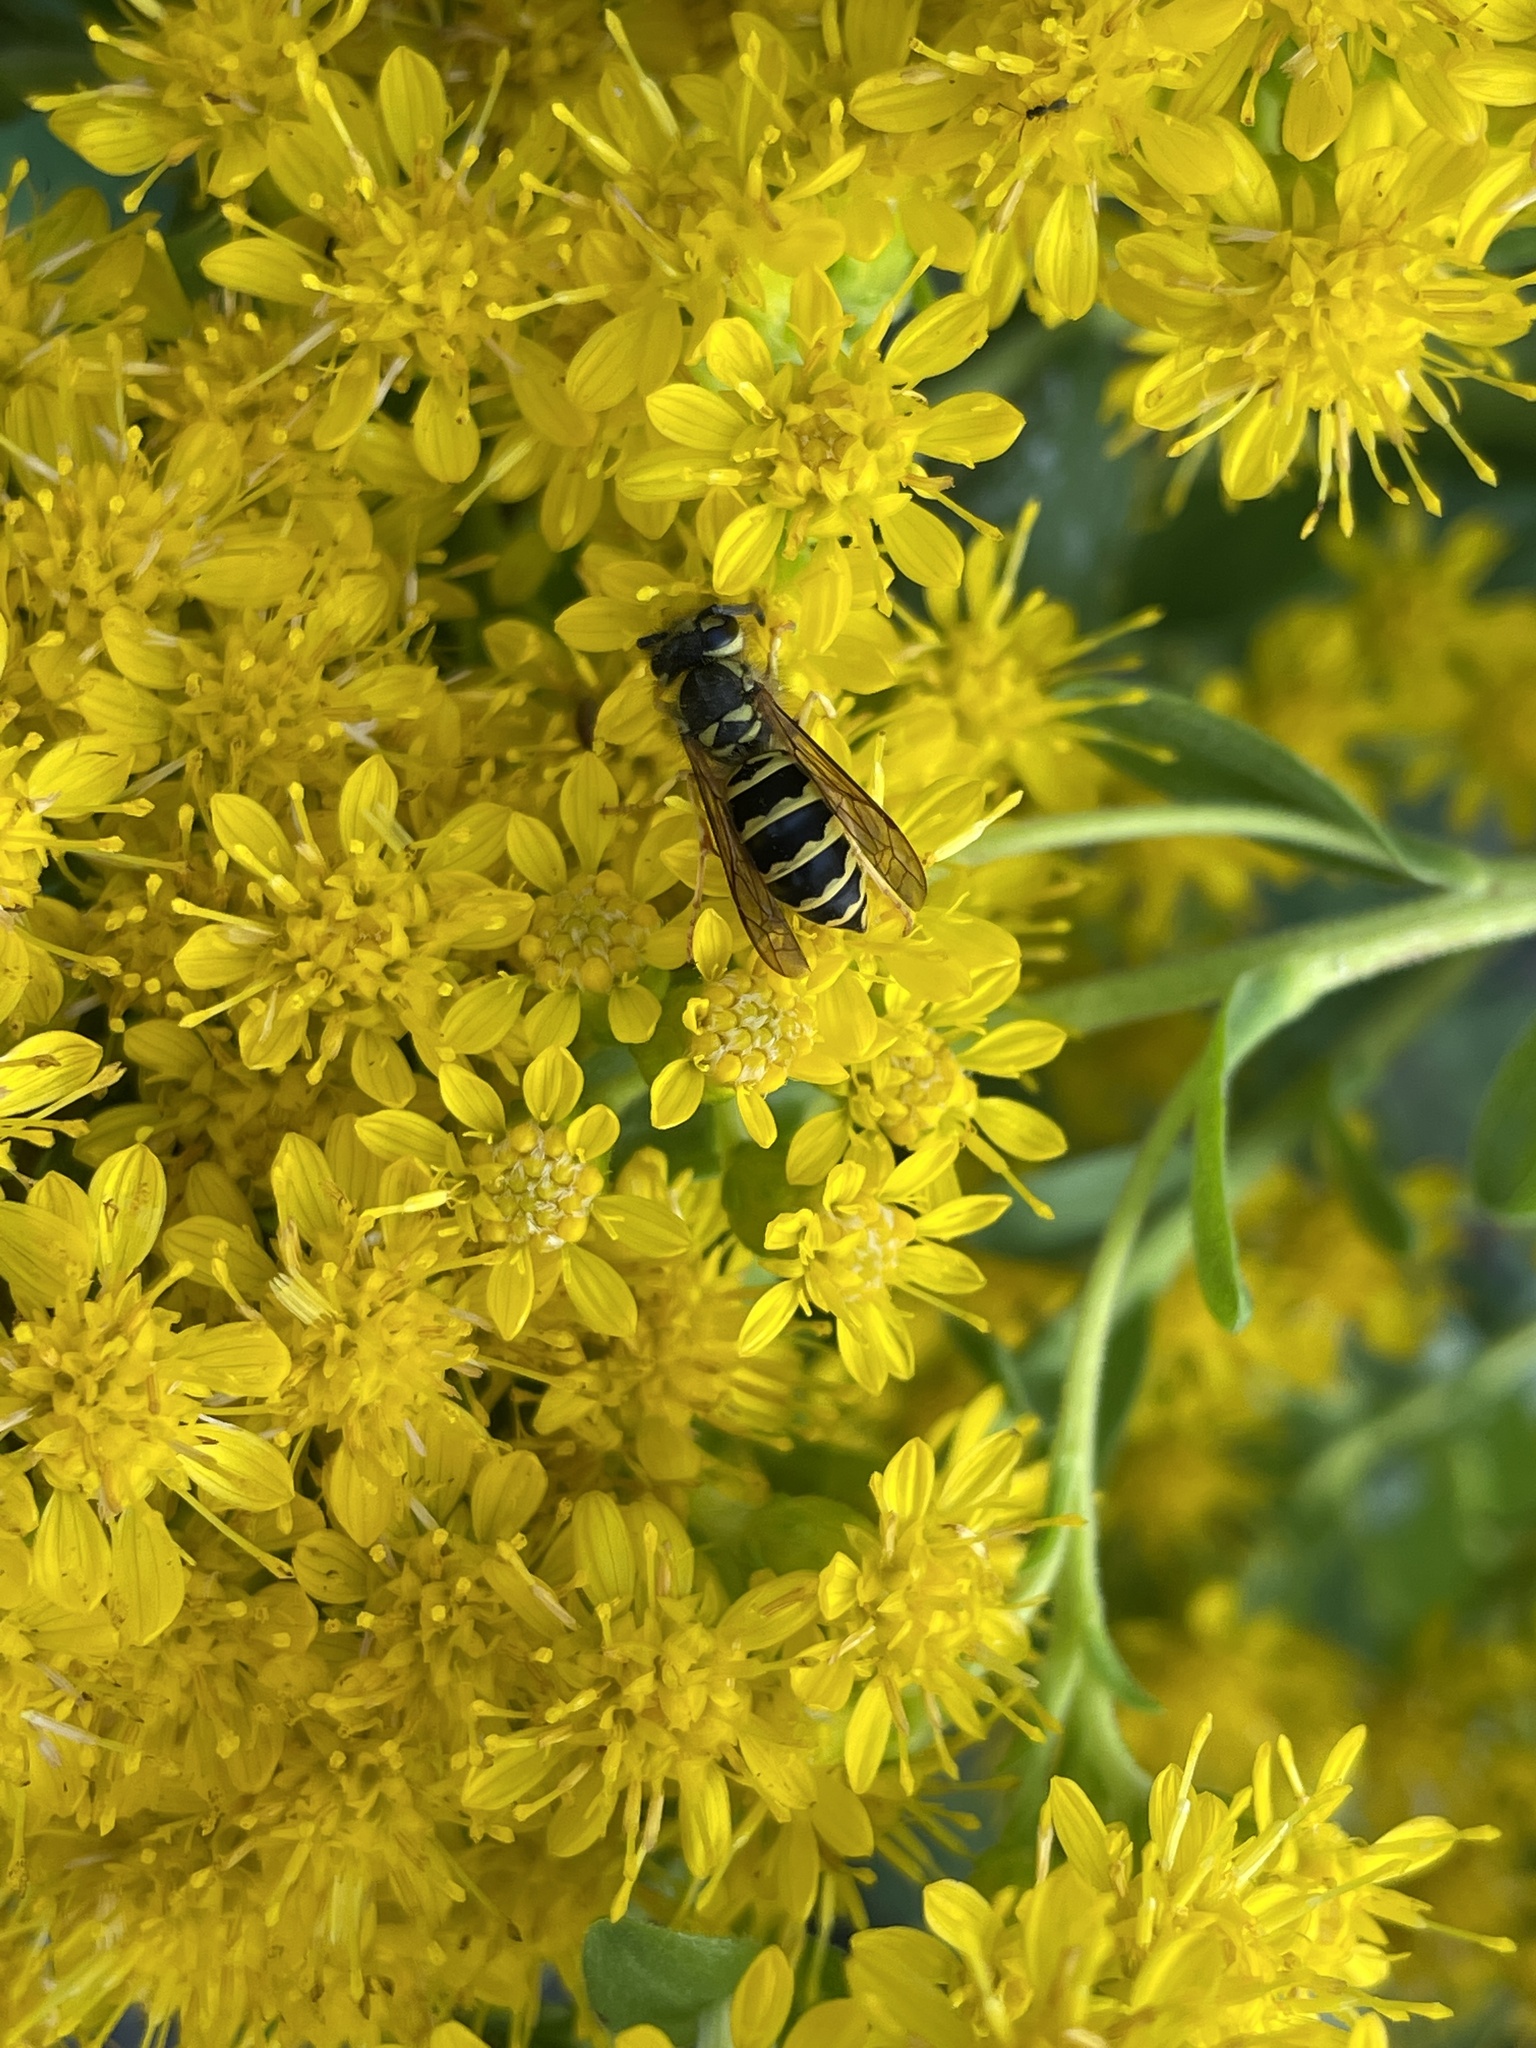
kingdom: Animalia
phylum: Arthropoda
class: Insecta
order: Hymenoptera
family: Vespidae
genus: Vespula
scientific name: Vespula maculifrons
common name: Eastern yellowjacket
